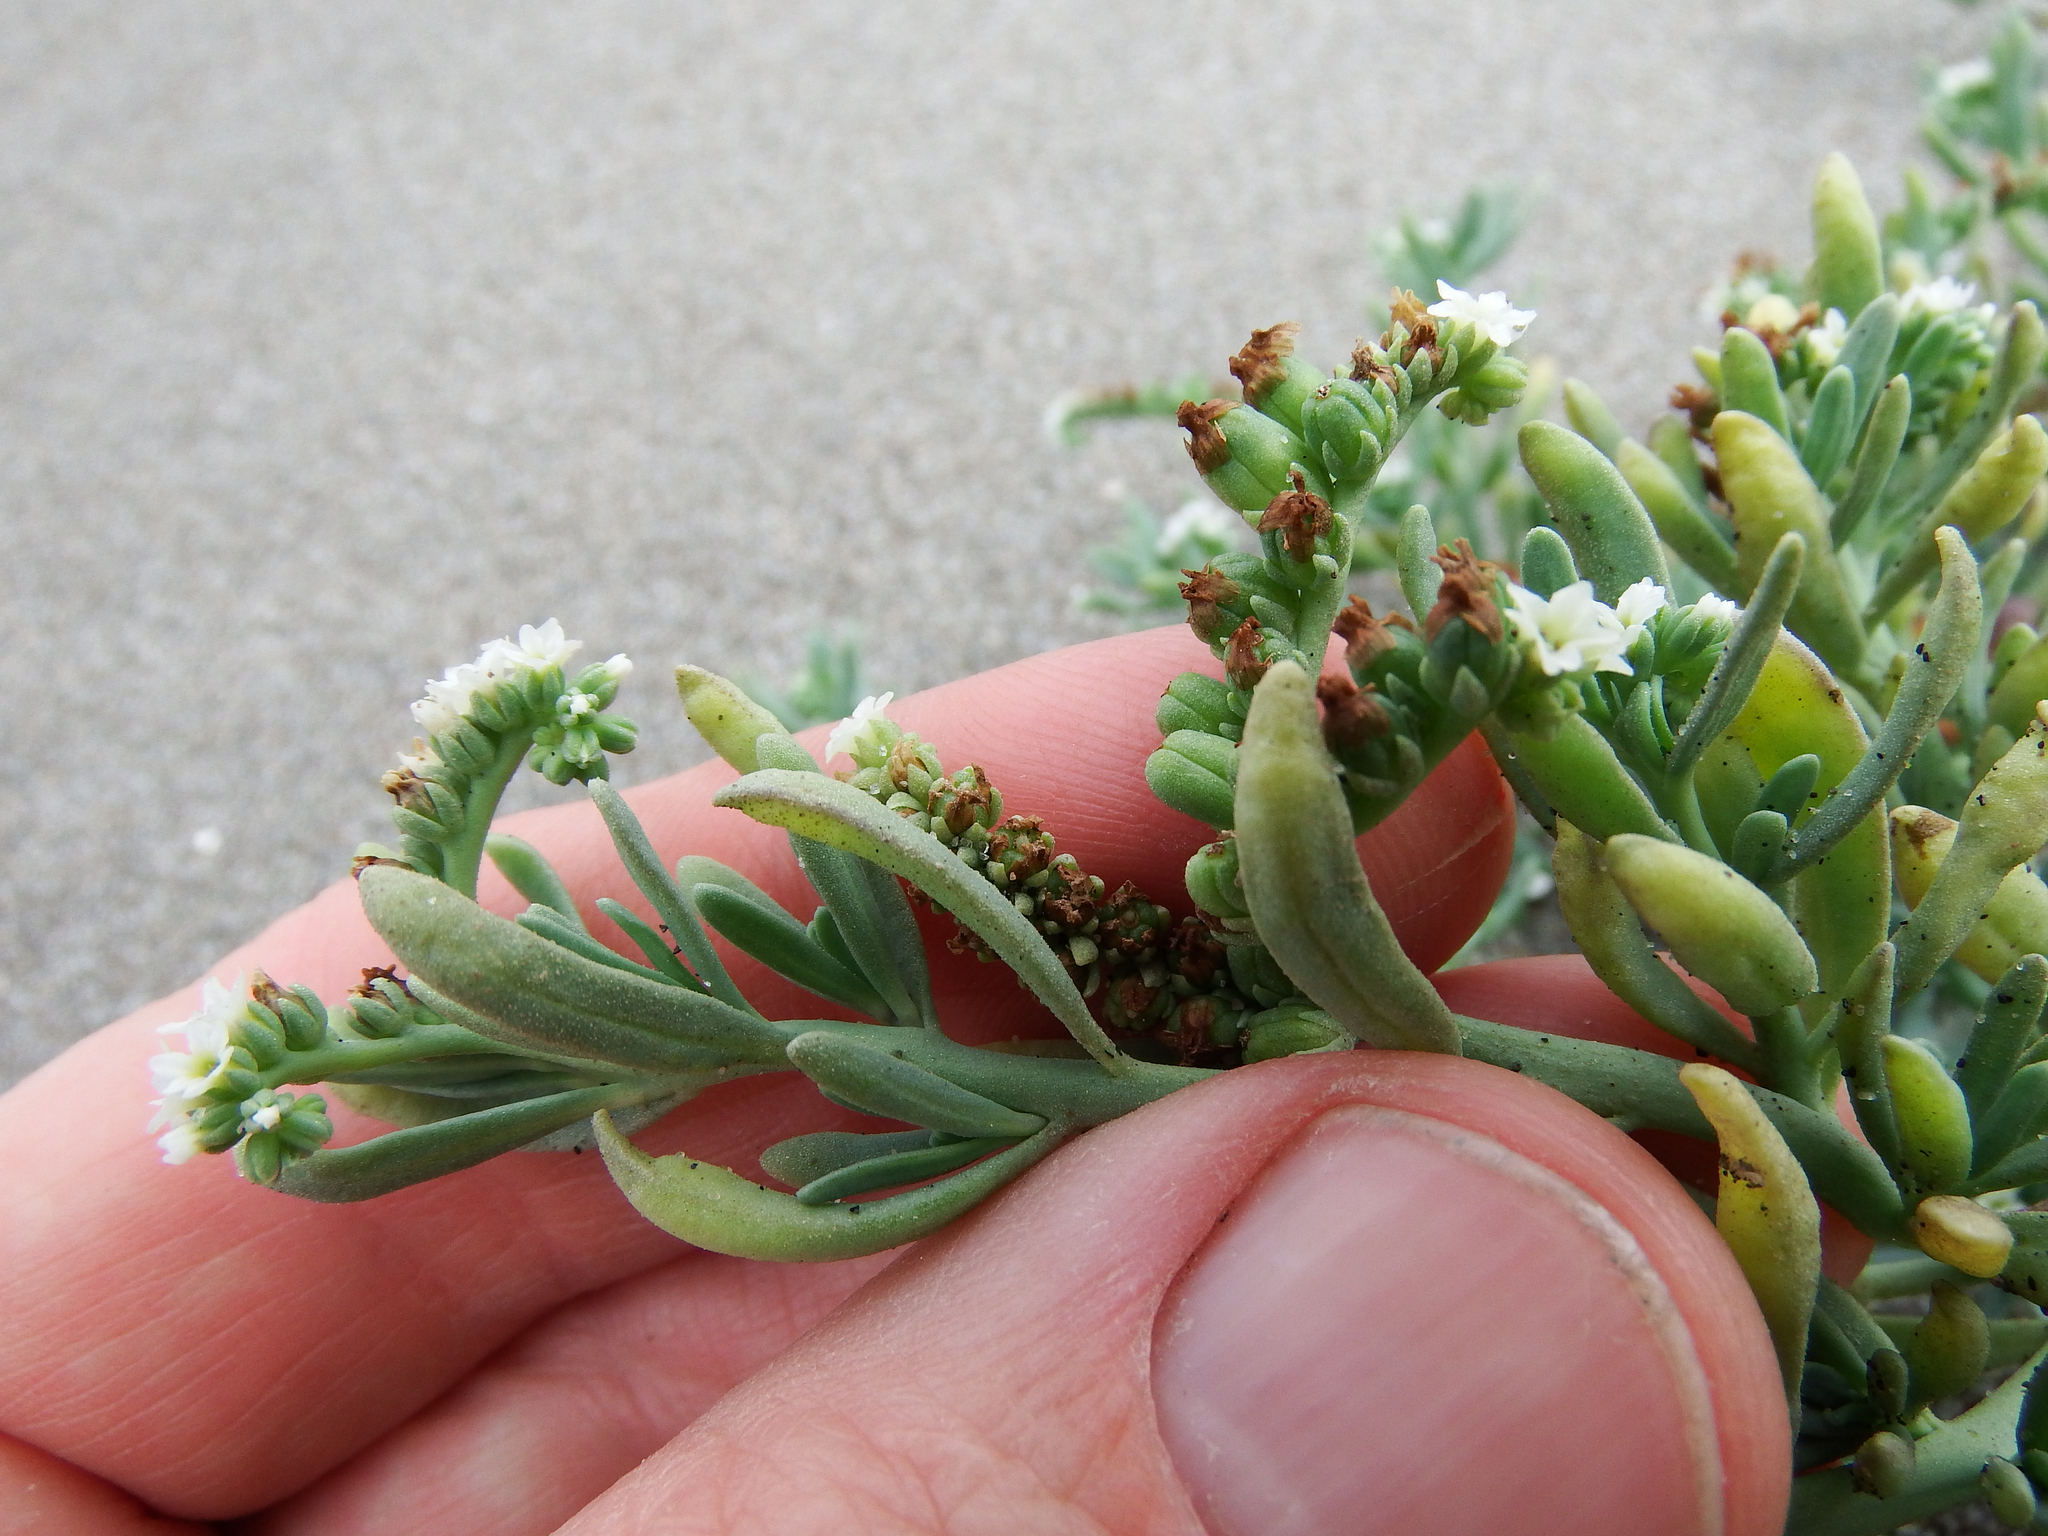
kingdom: Plantae
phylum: Tracheophyta
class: Magnoliopsida
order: Boraginales
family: Heliotropiaceae
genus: Heliotropium
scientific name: Heliotropium curassavicum
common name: Seaside heliotrope
